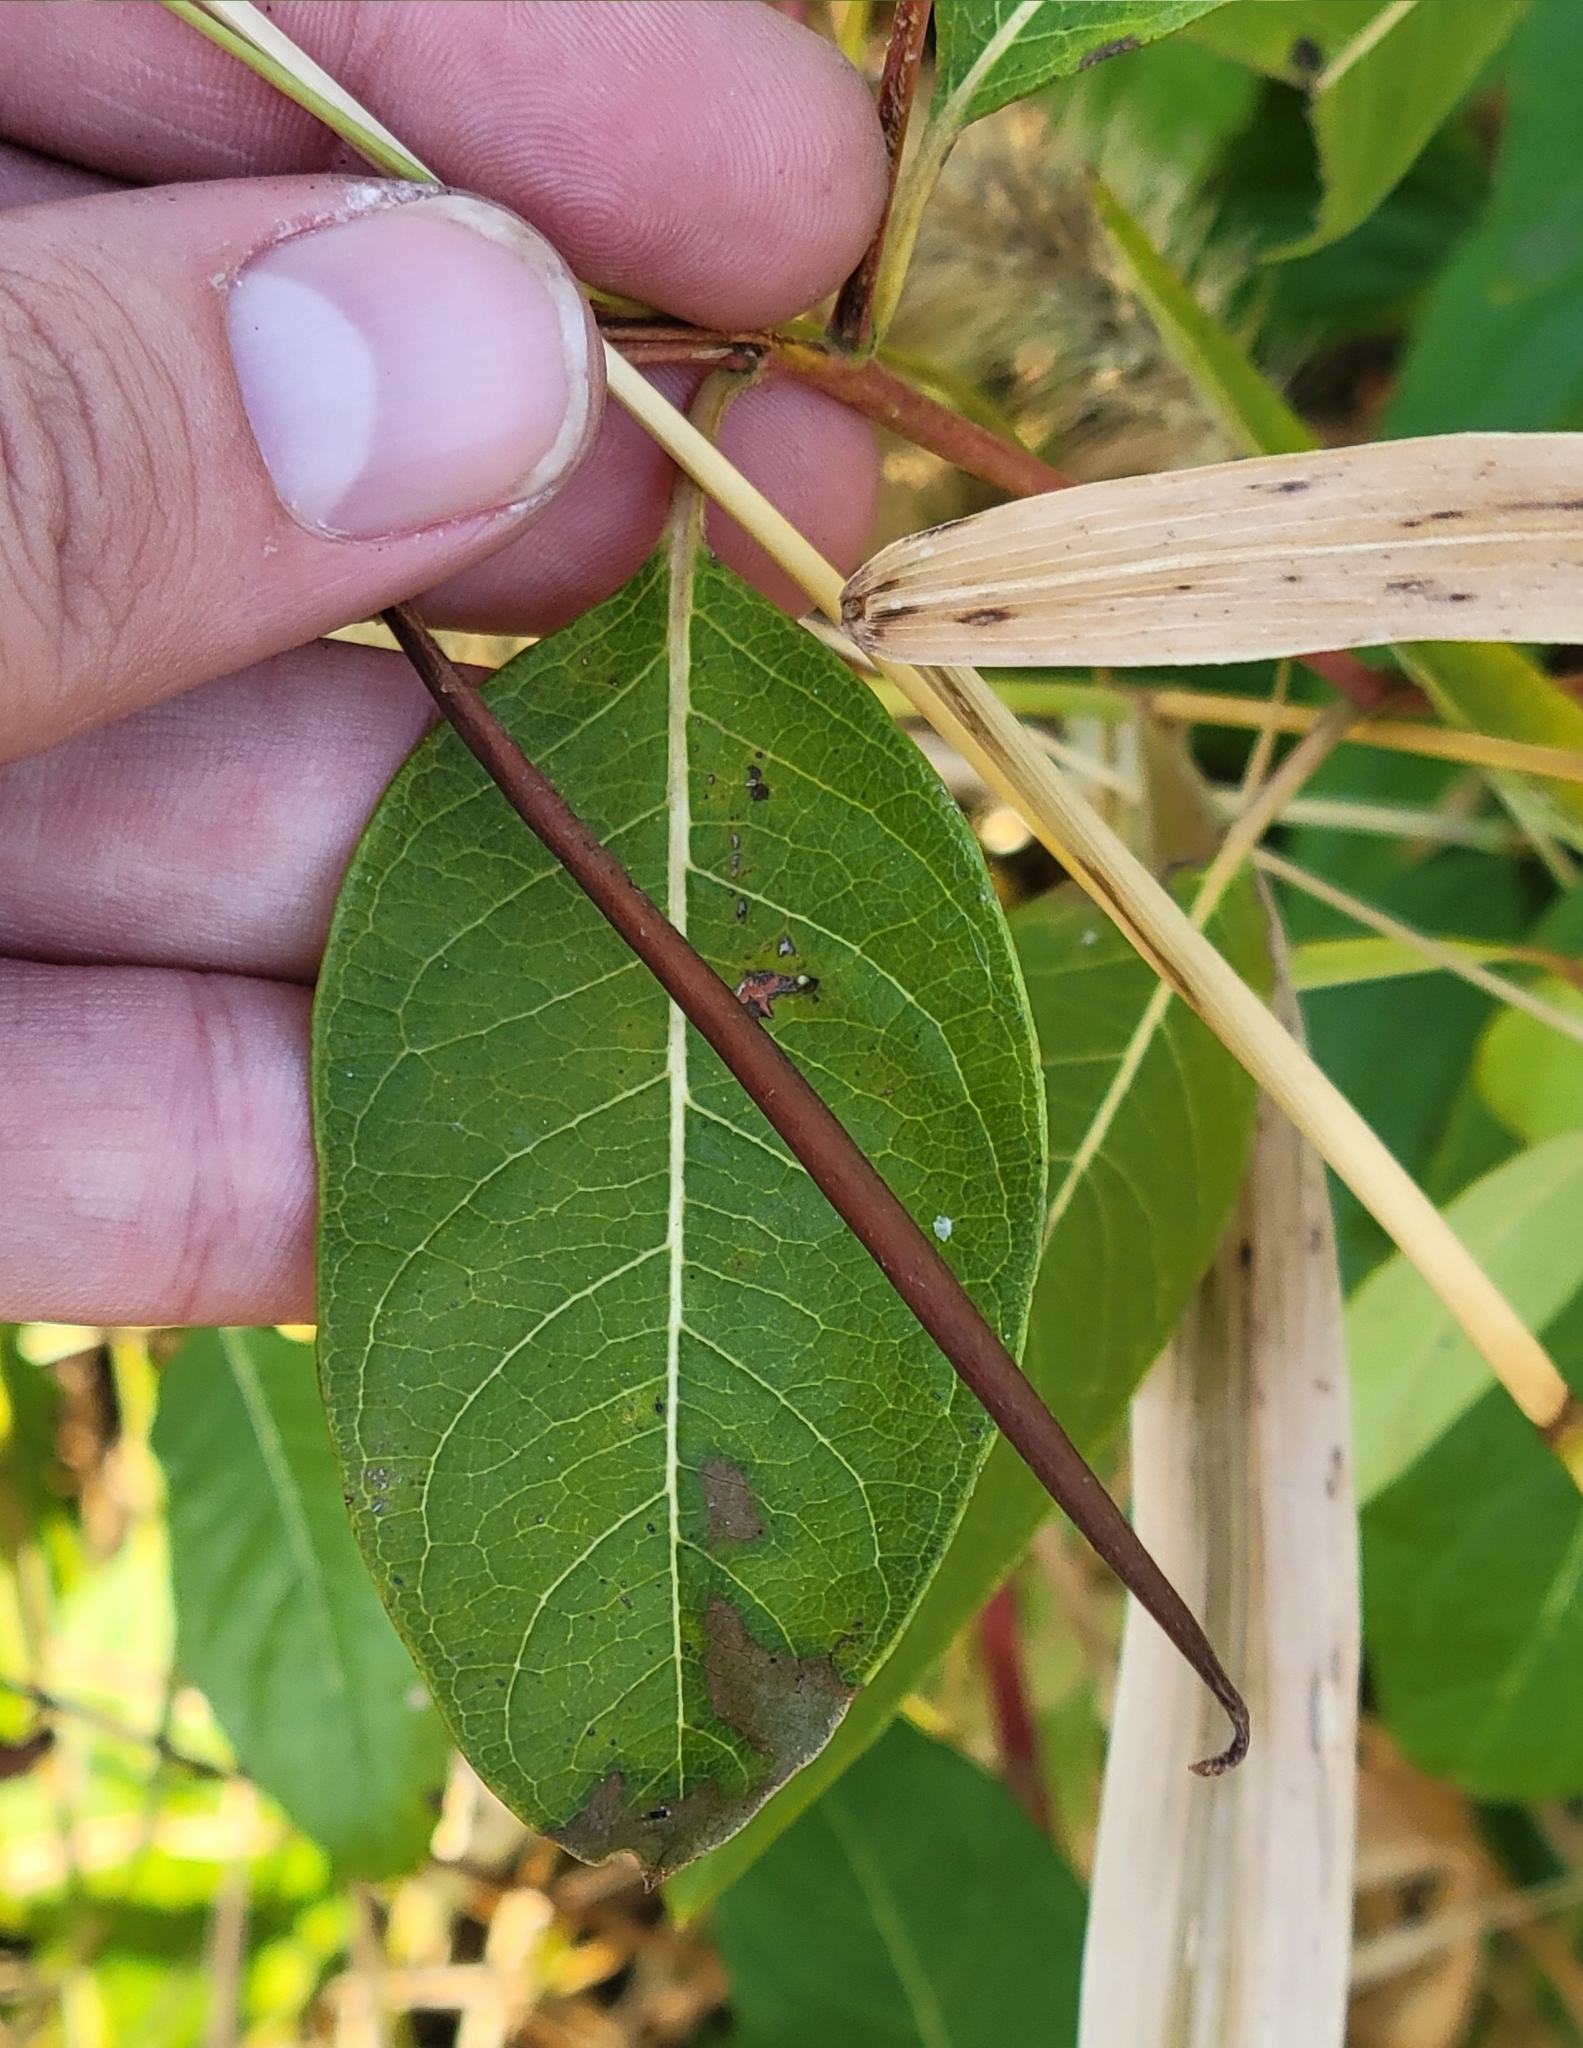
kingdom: Plantae
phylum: Tracheophyta
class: Magnoliopsida
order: Gentianales
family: Apocynaceae
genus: Apocynum
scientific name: Apocynum cannabinum
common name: Hemp dogbane
